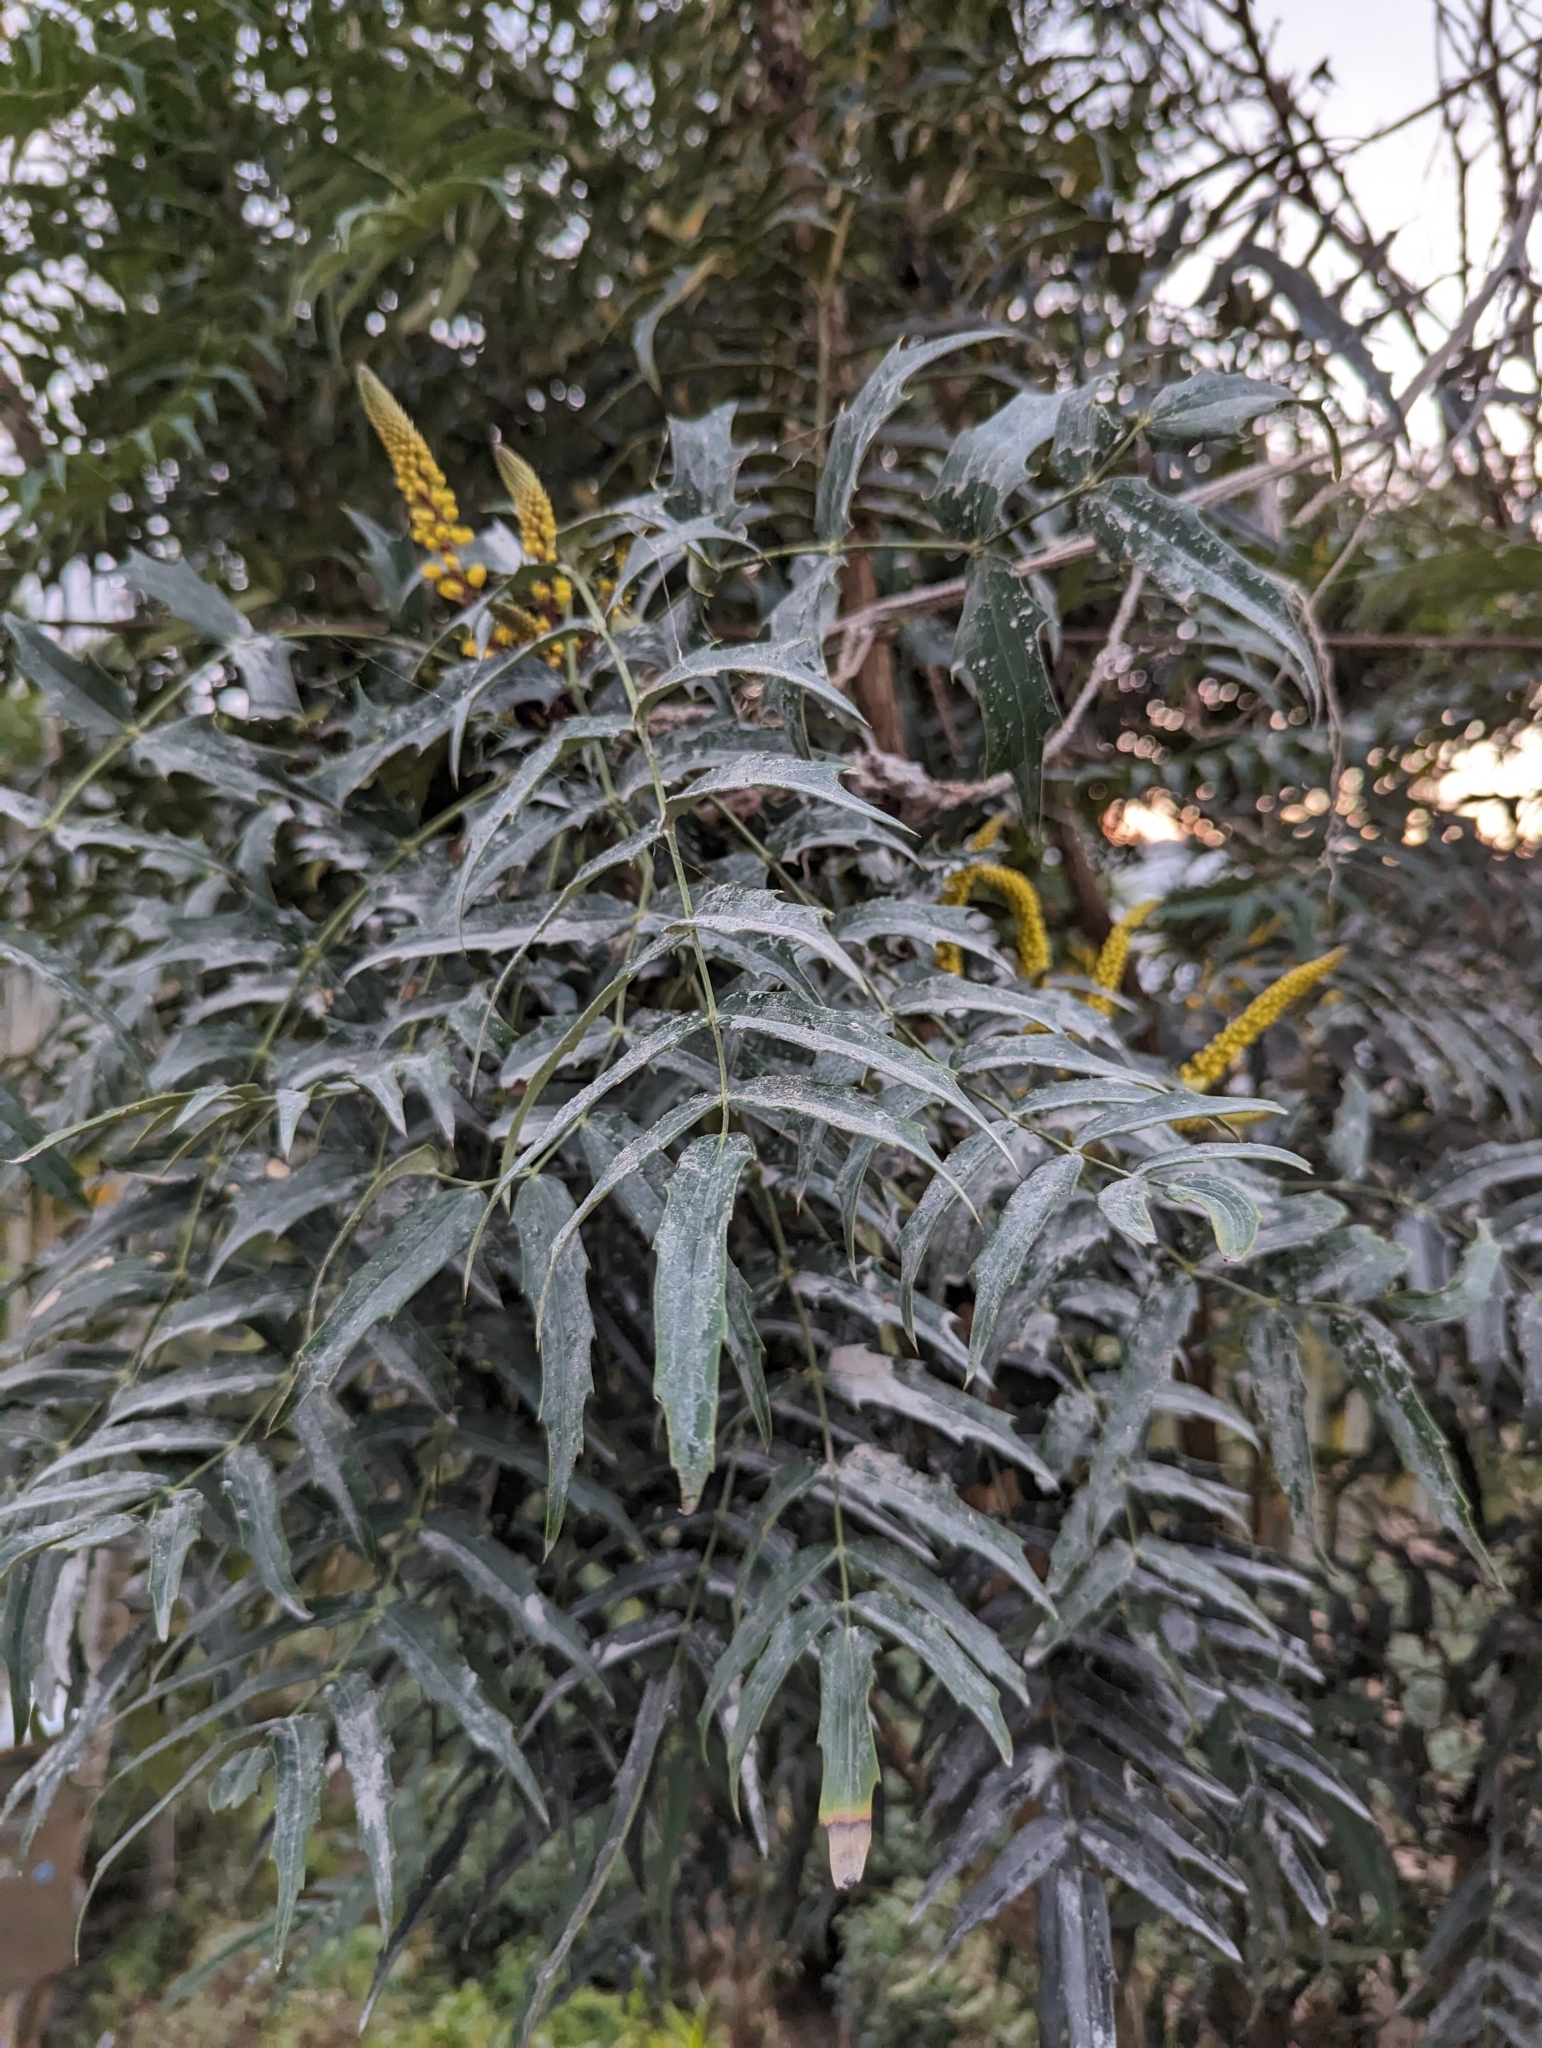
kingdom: Plantae
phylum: Tracheophyta
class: Magnoliopsida
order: Ranunculales
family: Berberidaceae
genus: Mahonia
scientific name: Mahonia oiwakensis
